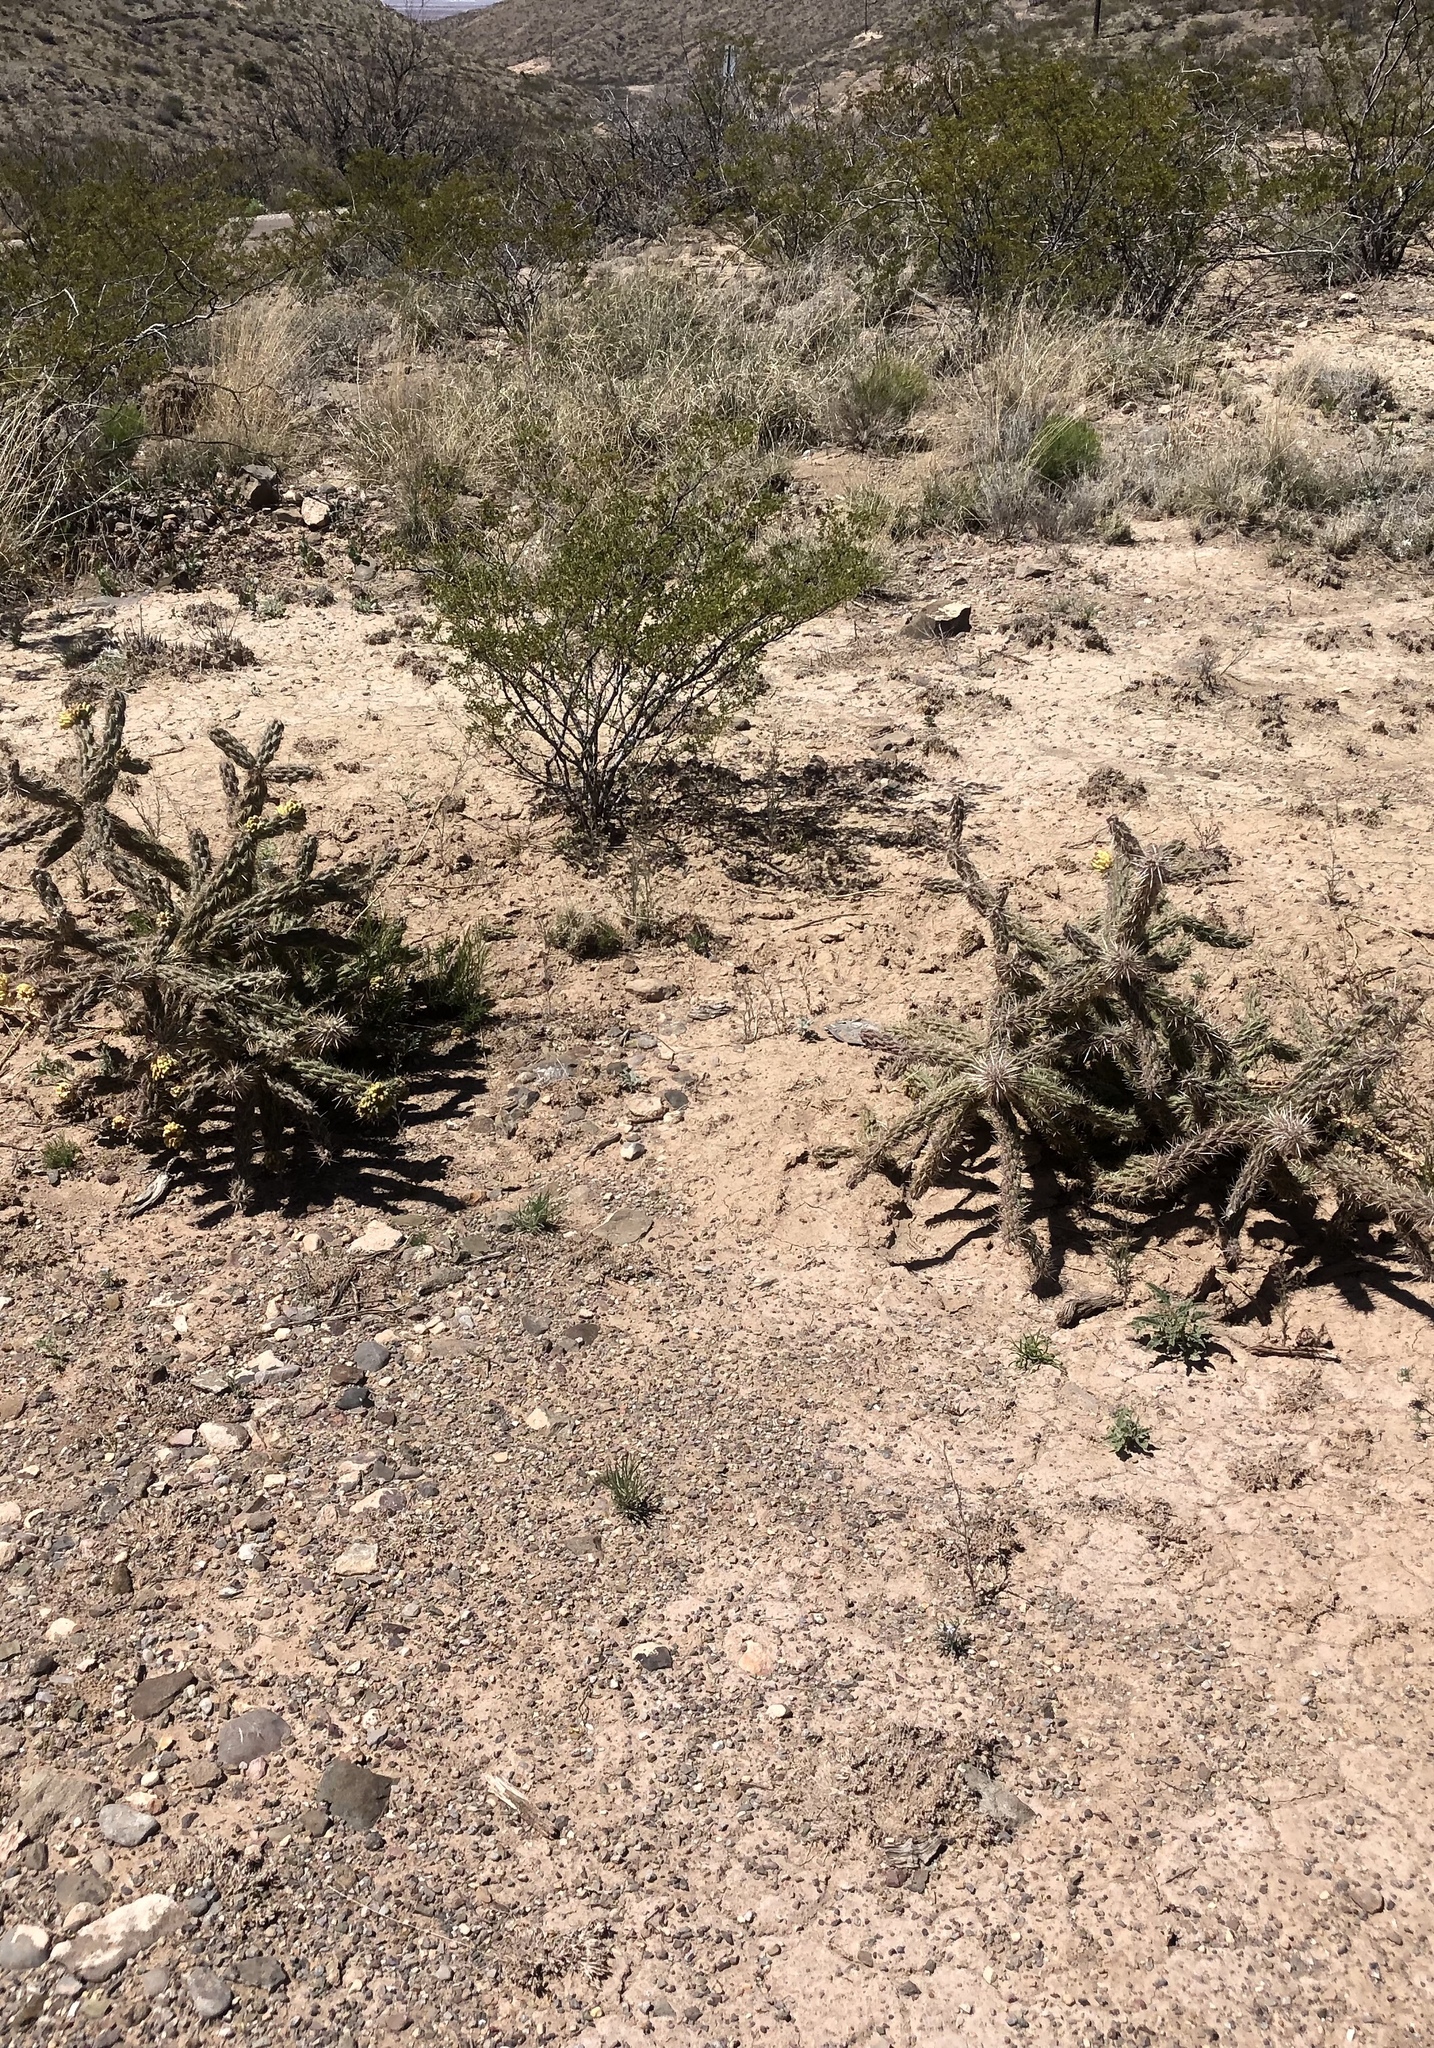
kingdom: Plantae
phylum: Tracheophyta
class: Magnoliopsida
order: Caryophyllales
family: Cactaceae
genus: Cylindropuntia
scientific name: Cylindropuntia imbricata
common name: Candelabrum cactus
